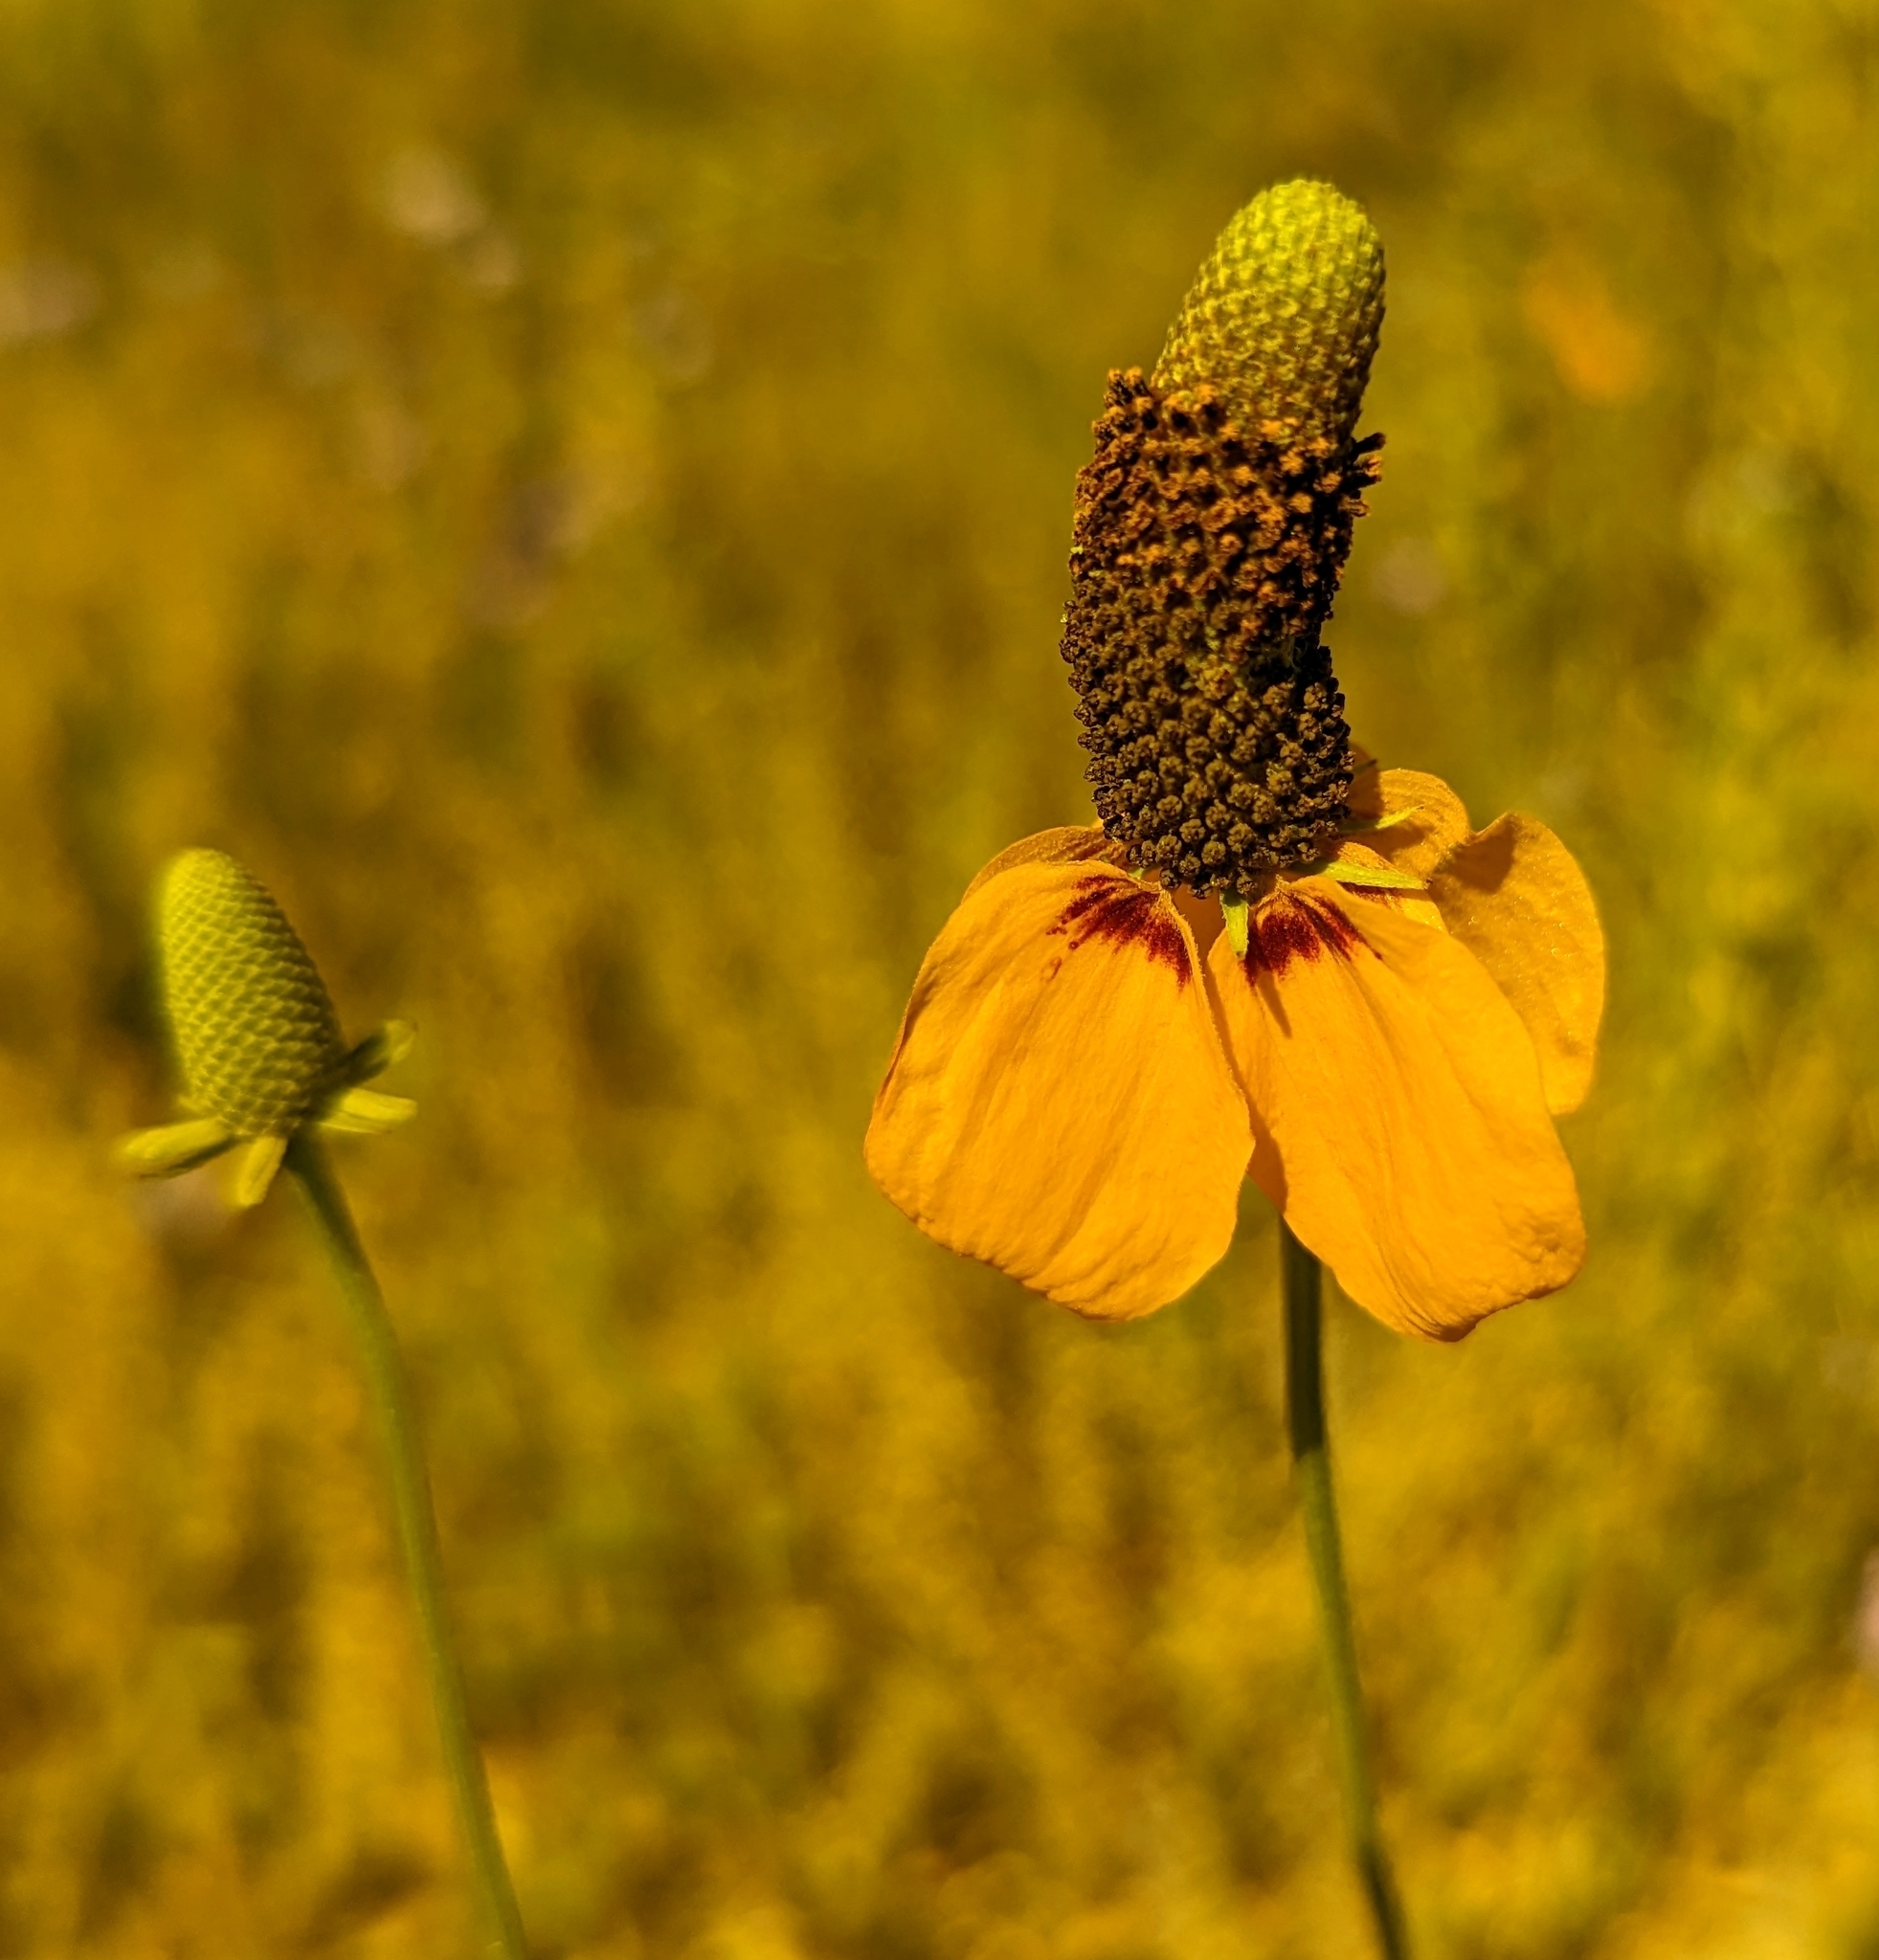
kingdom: Plantae
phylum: Tracheophyta
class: Magnoliopsida
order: Asterales
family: Asteraceae
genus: Ratibida
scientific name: Ratibida columnifera
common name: Prairie coneflower
